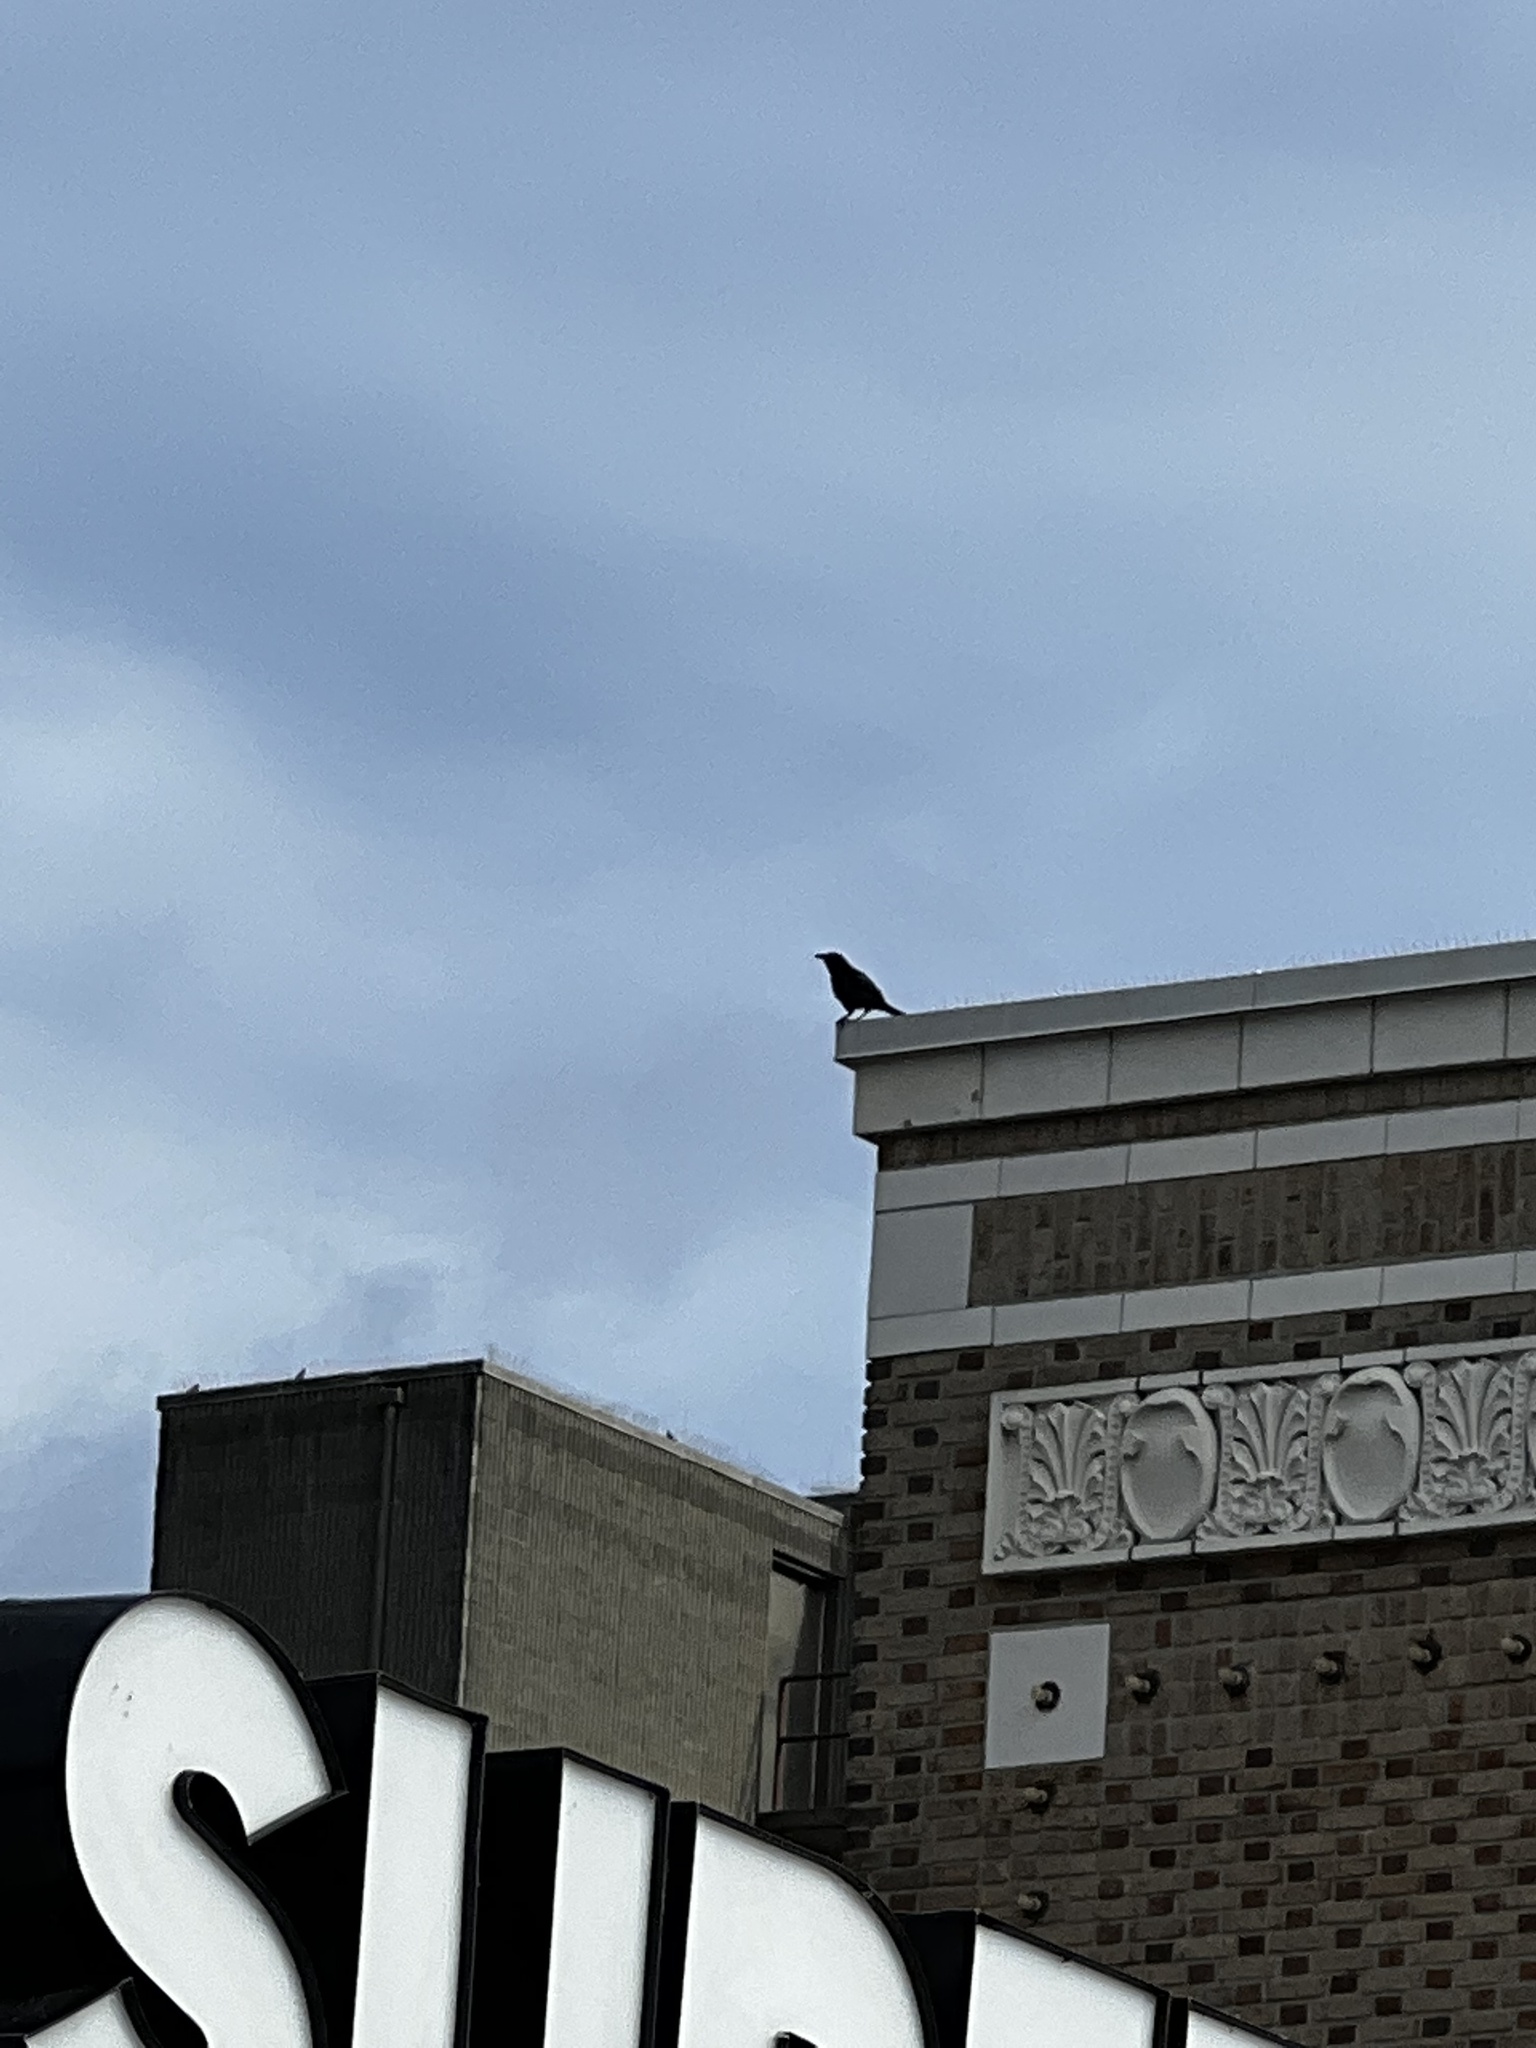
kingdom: Animalia
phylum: Chordata
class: Aves
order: Passeriformes
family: Corvidae
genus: Corvus
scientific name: Corvus brachyrhynchos
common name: American crow
